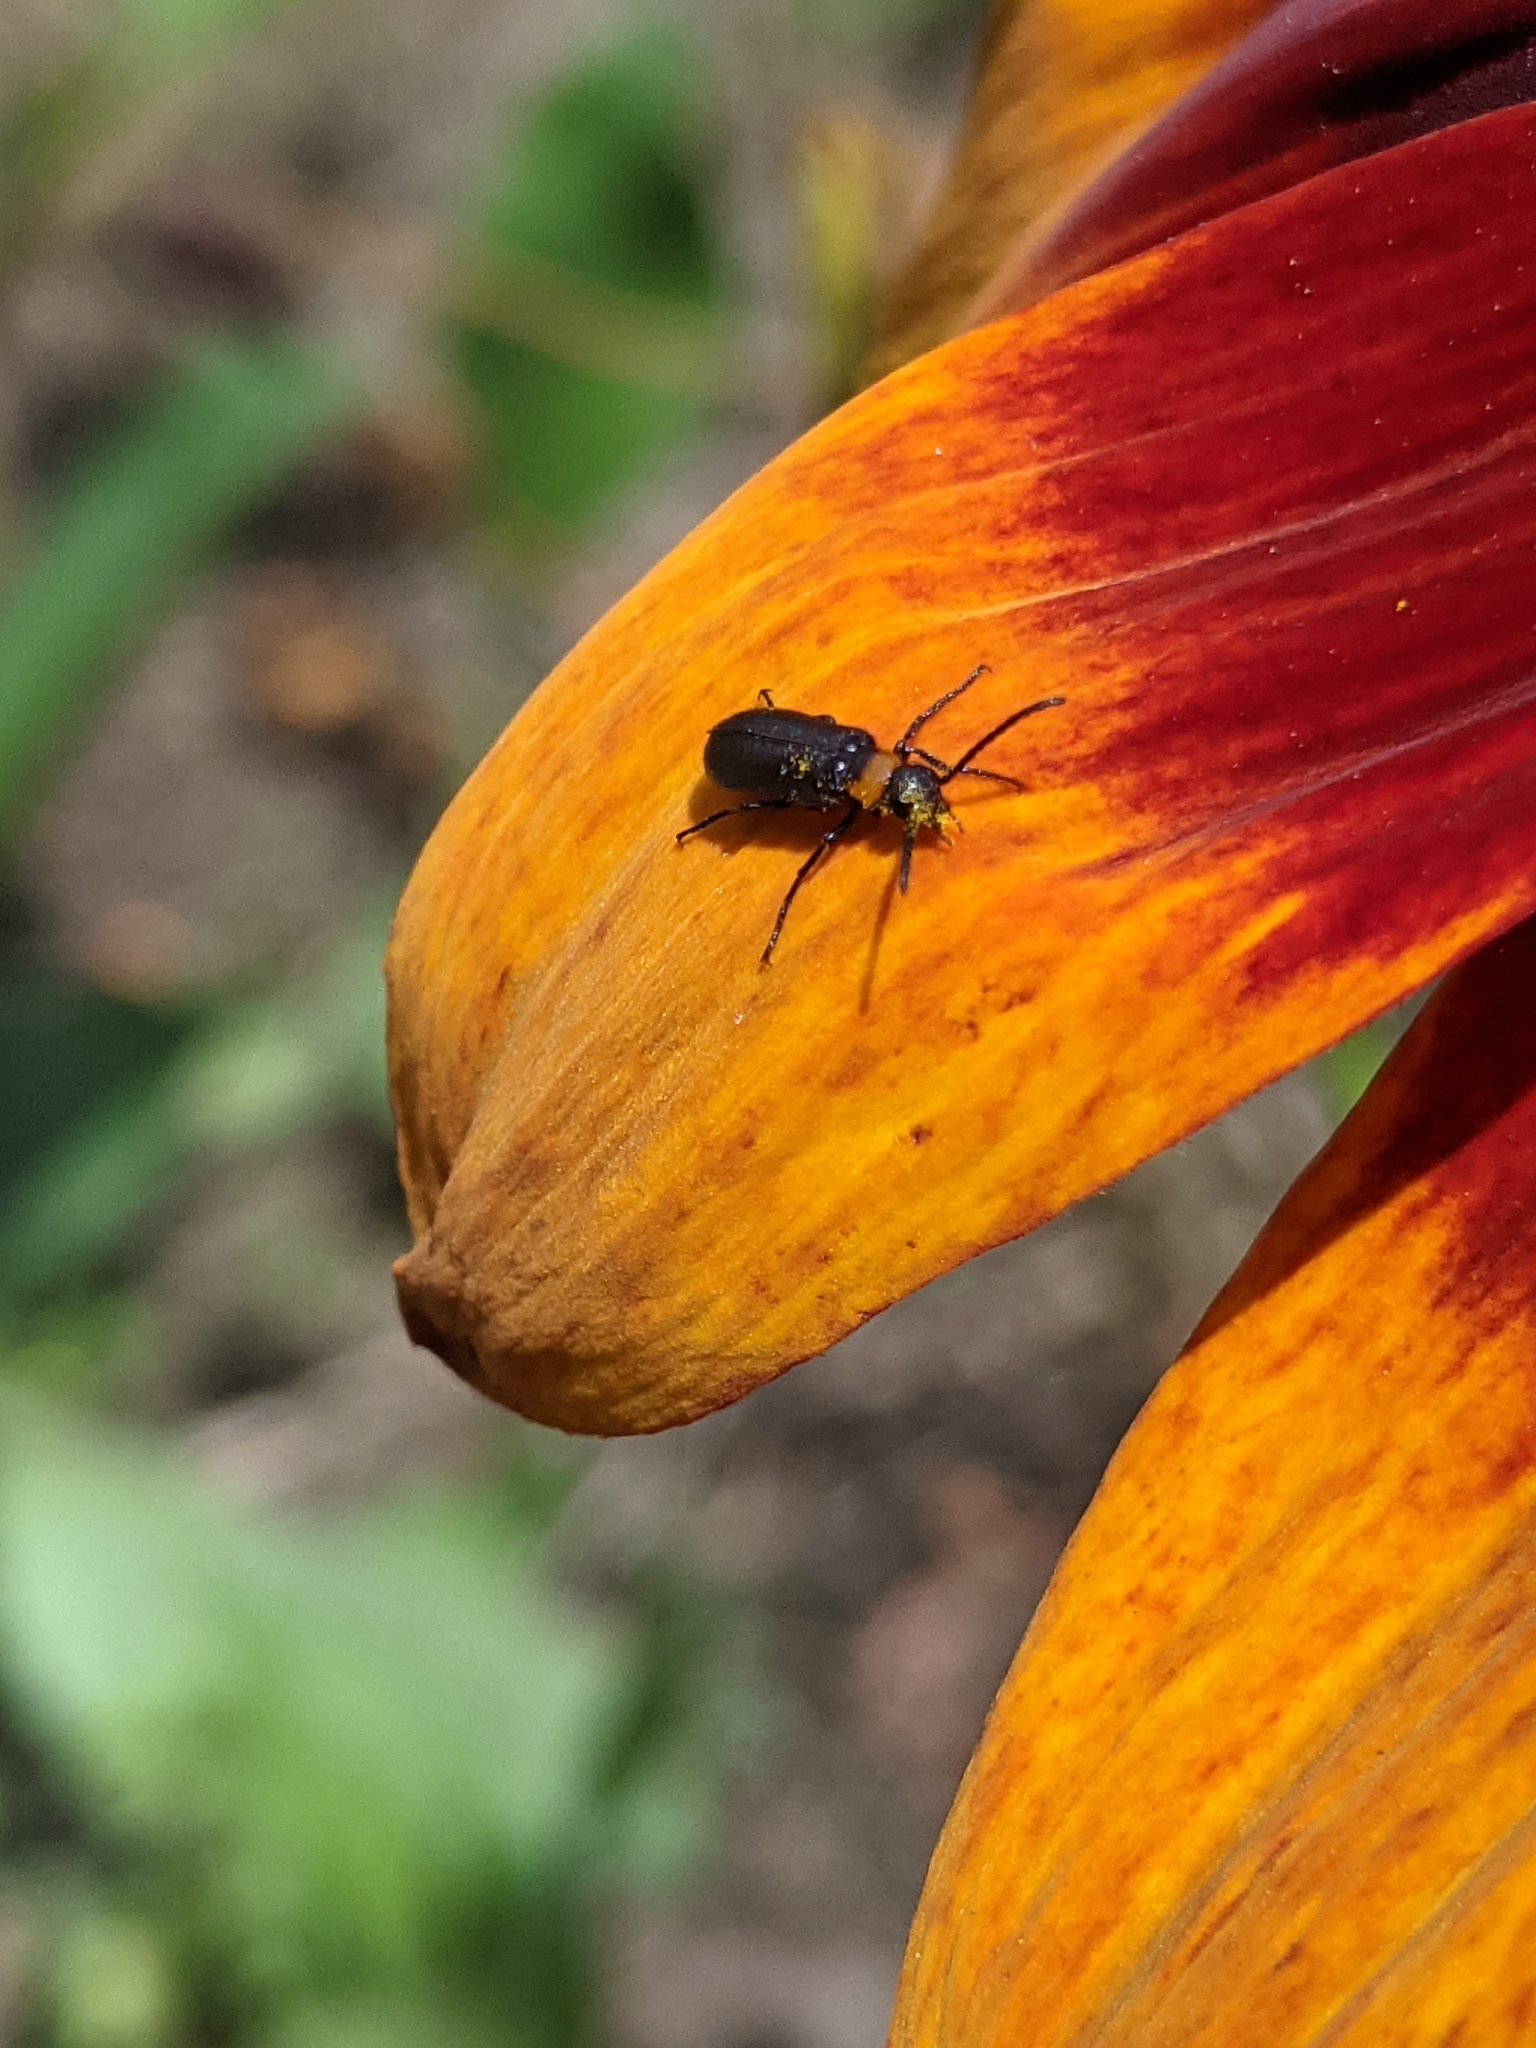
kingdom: Animalia
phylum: Arthropoda
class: Insecta
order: Coleoptera
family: Meloidae
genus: Nemognatha
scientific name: Nemognatha nemorensis
